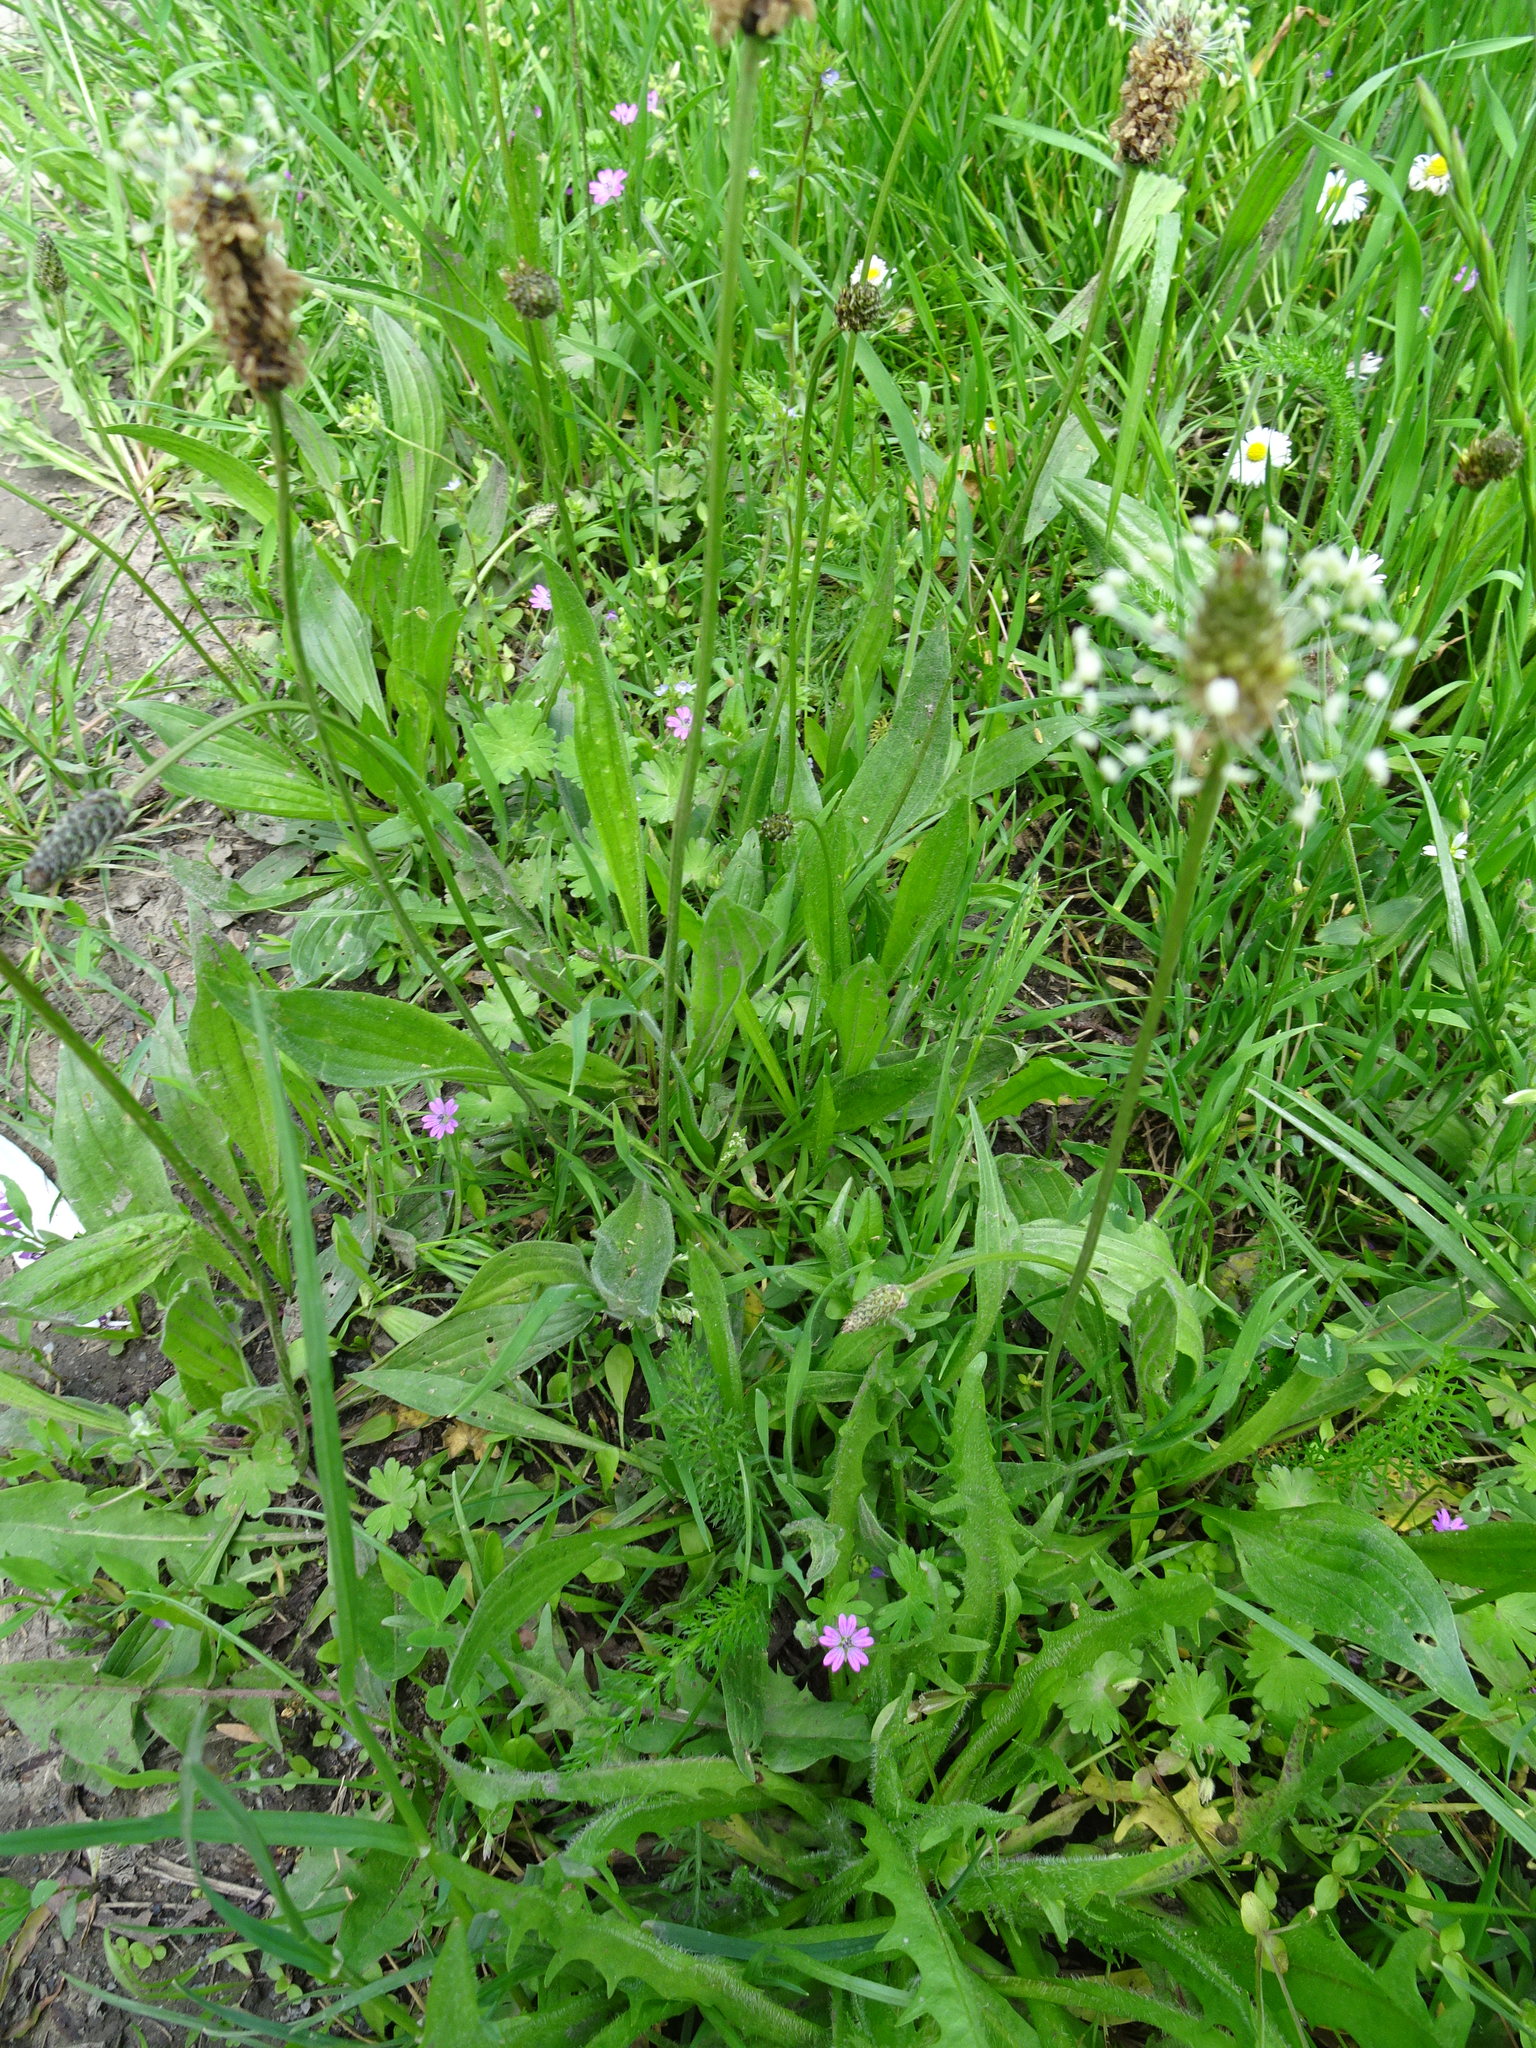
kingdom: Plantae
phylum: Tracheophyta
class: Magnoliopsida
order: Lamiales
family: Plantaginaceae
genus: Plantago
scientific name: Plantago lanceolata
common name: Ribwort plantain
